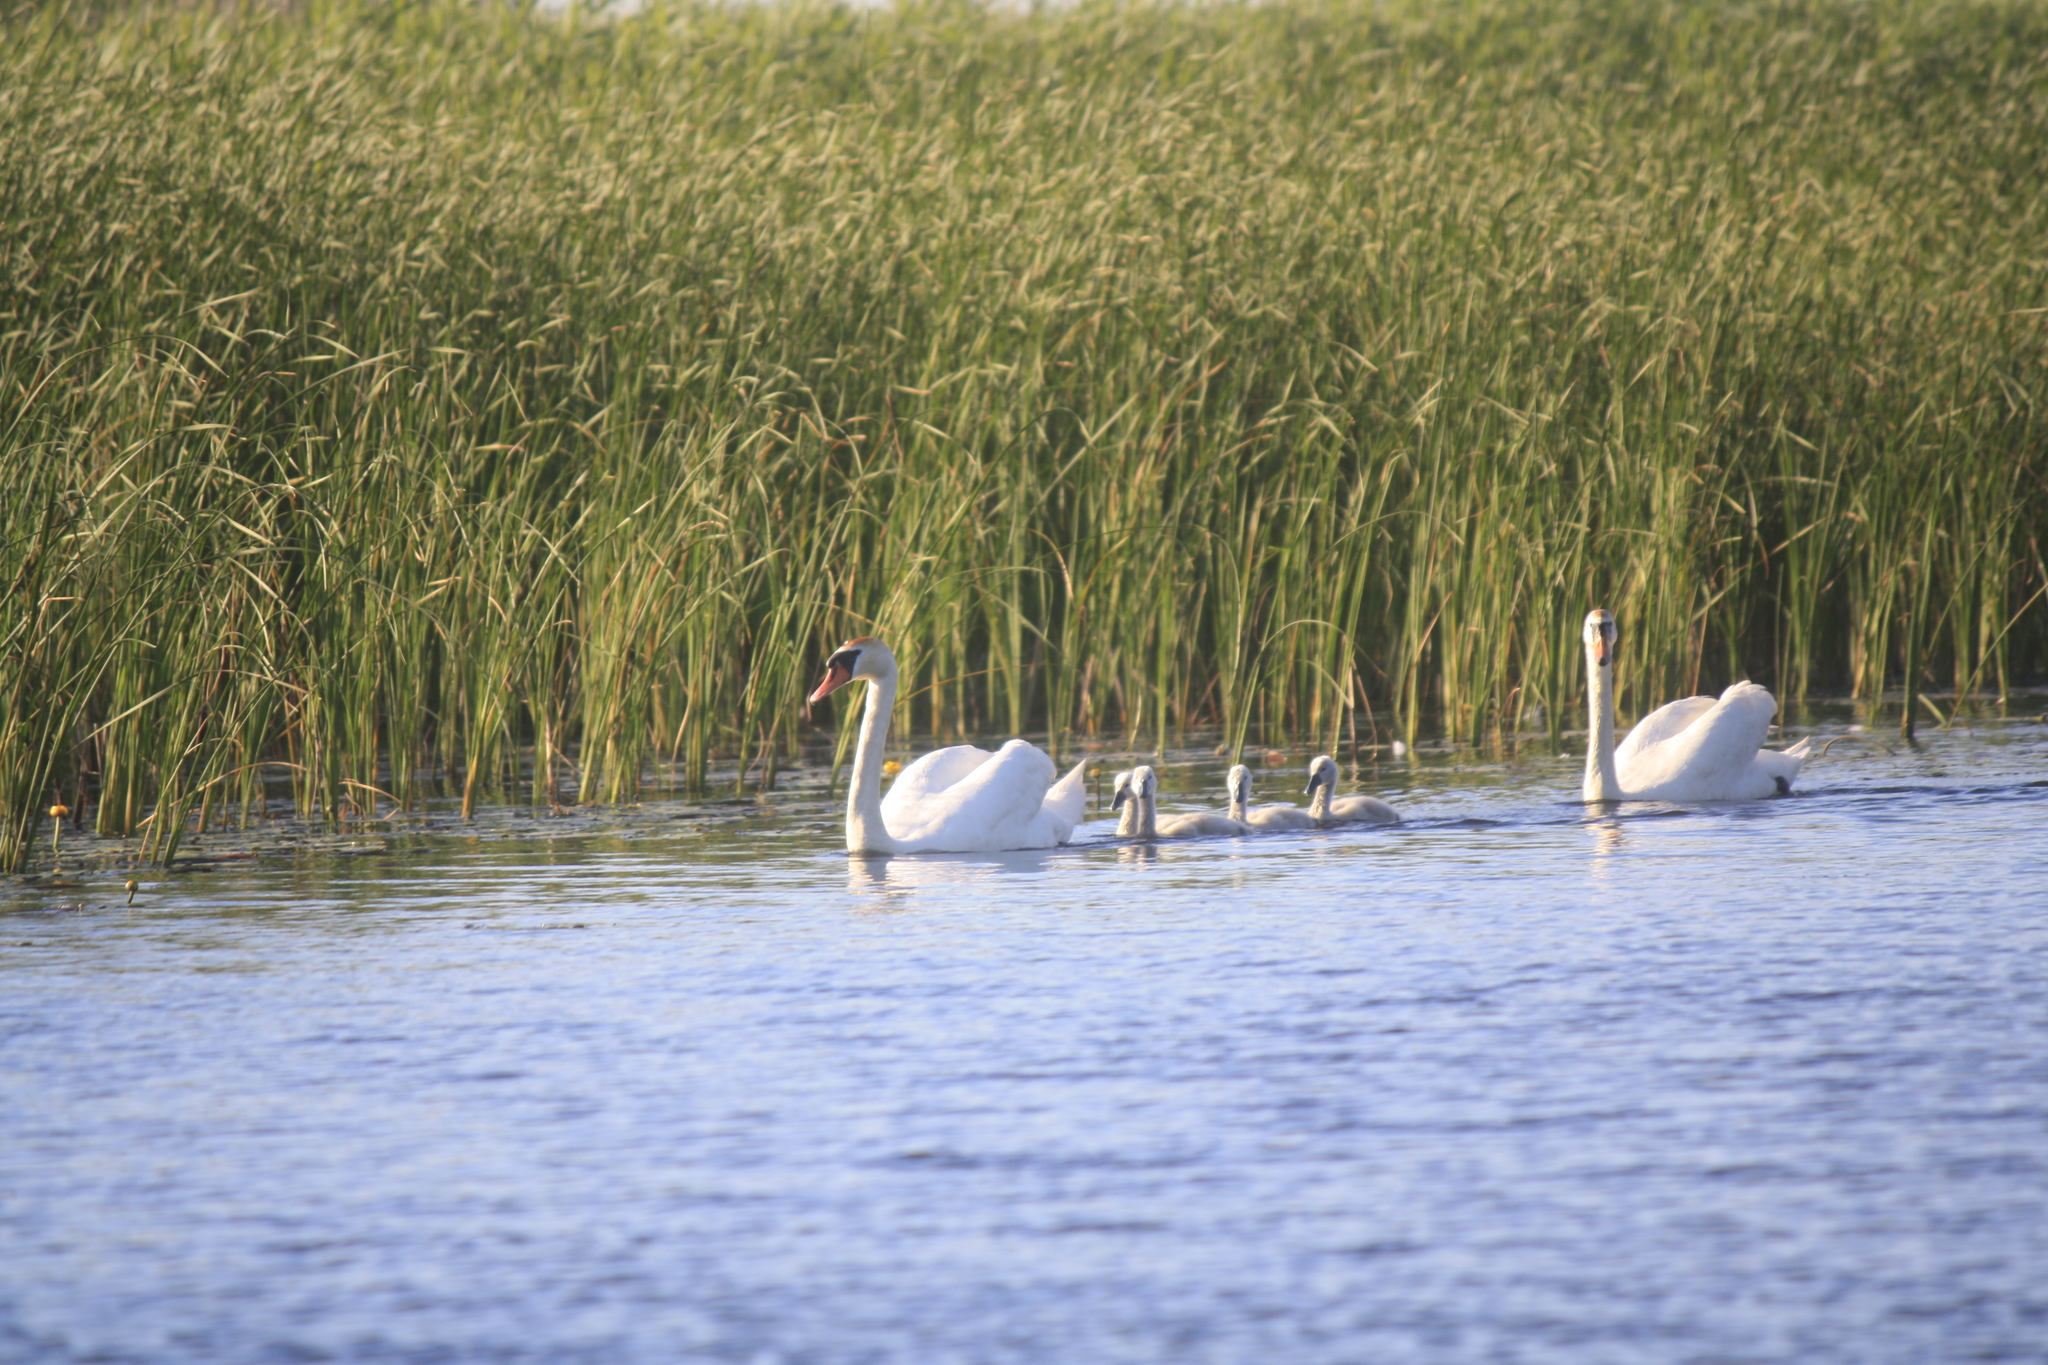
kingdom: Animalia
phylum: Chordata
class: Aves
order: Anseriformes
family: Anatidae
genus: Cygnus
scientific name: Cygnus olor
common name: Mute swan
